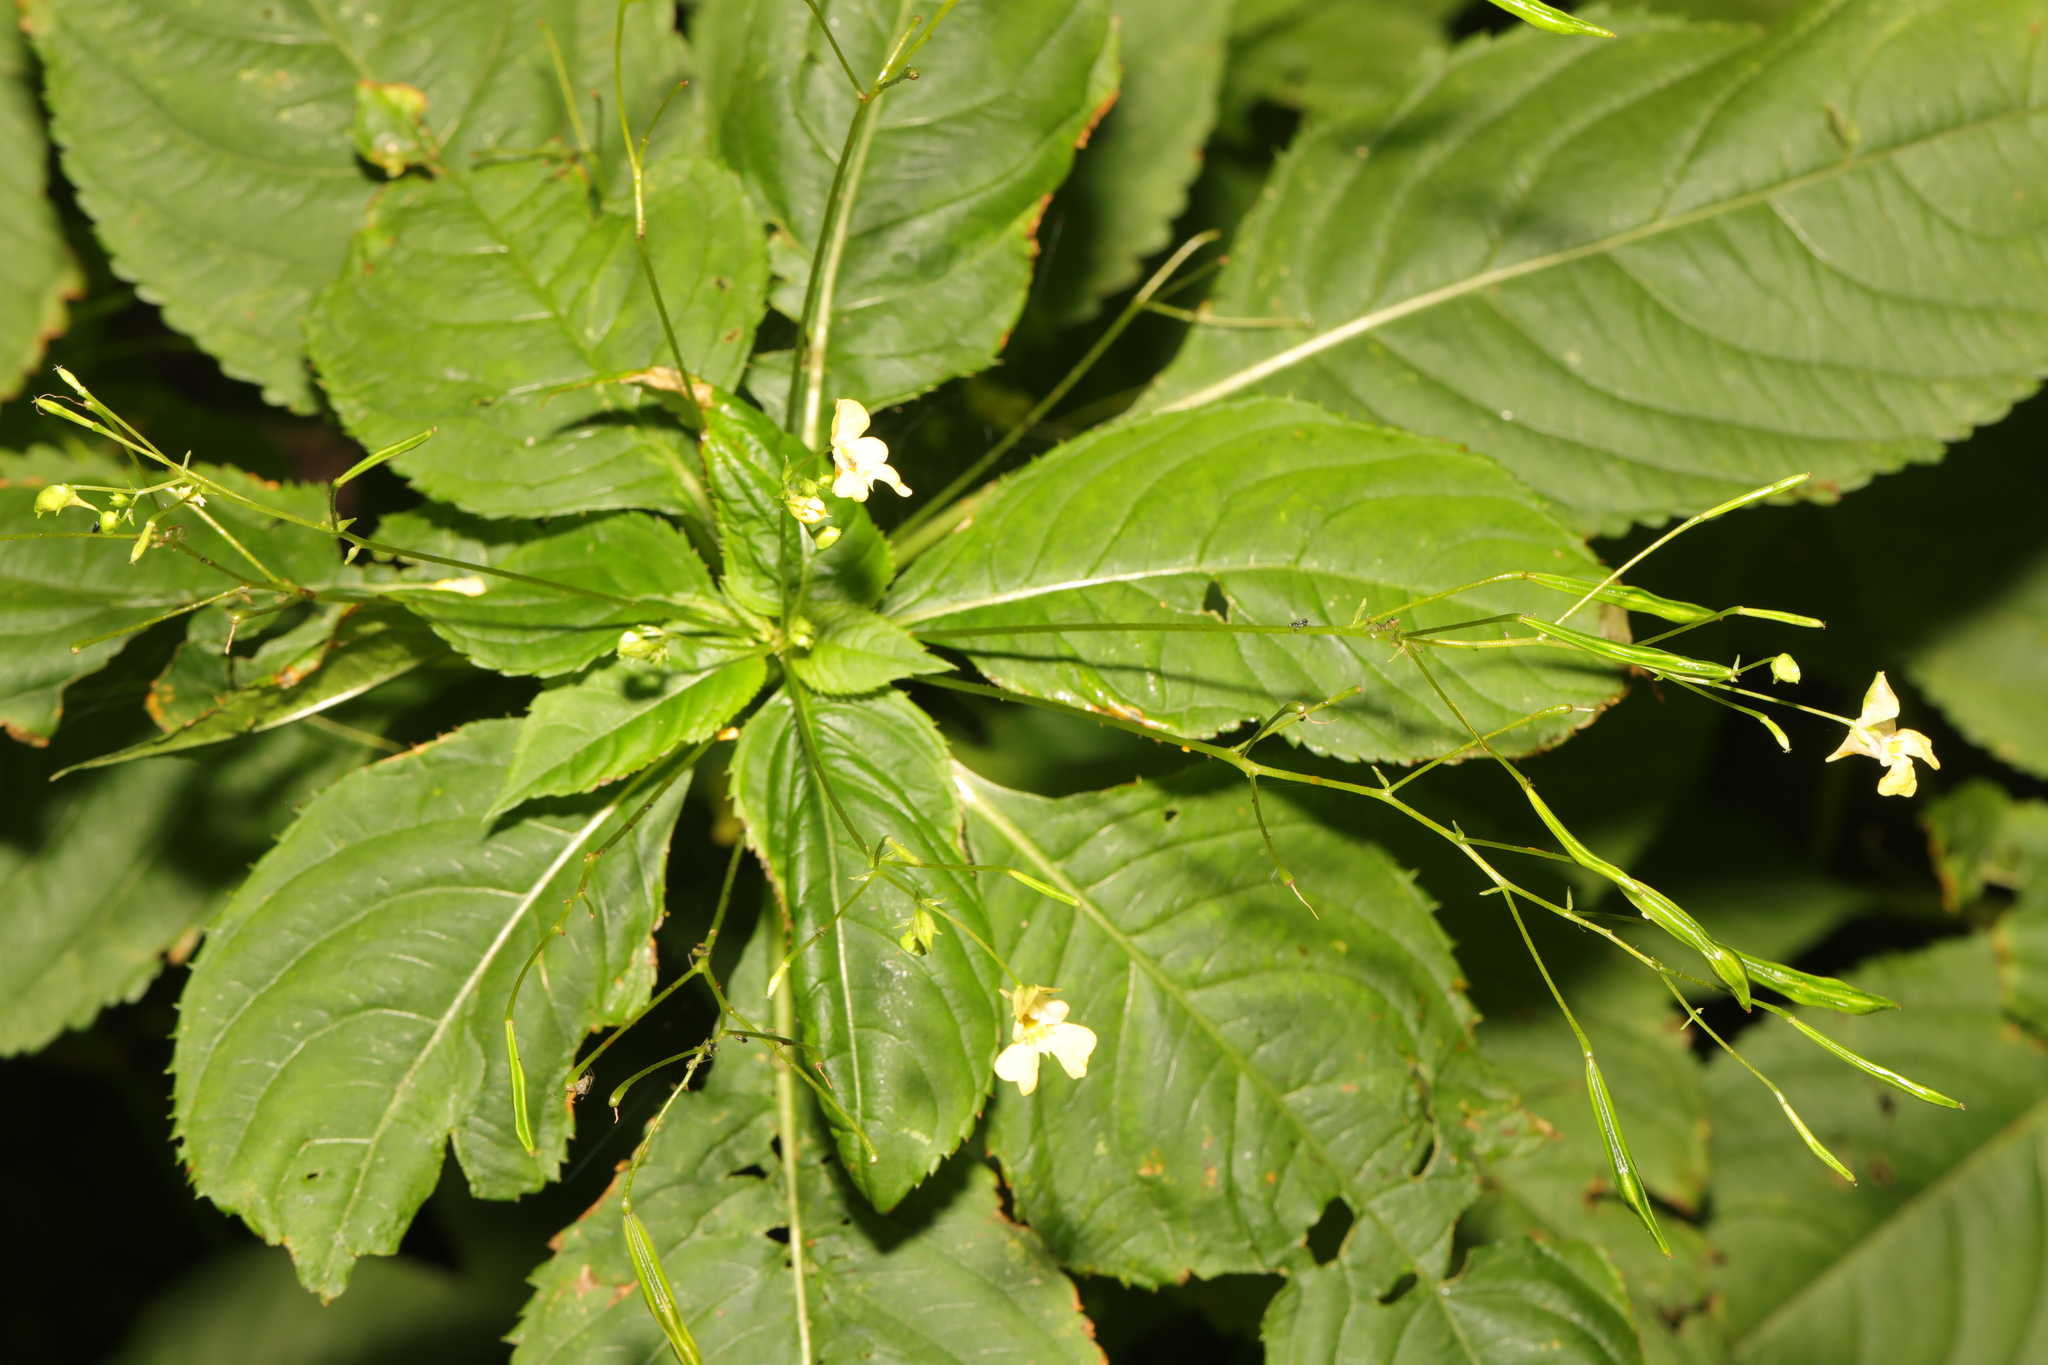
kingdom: Plantae
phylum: Tracheophyta
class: Magnoliopsida
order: Ericales
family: Balsaminaceae
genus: Impatiens
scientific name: Impatiens parviflora
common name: Small balsam
